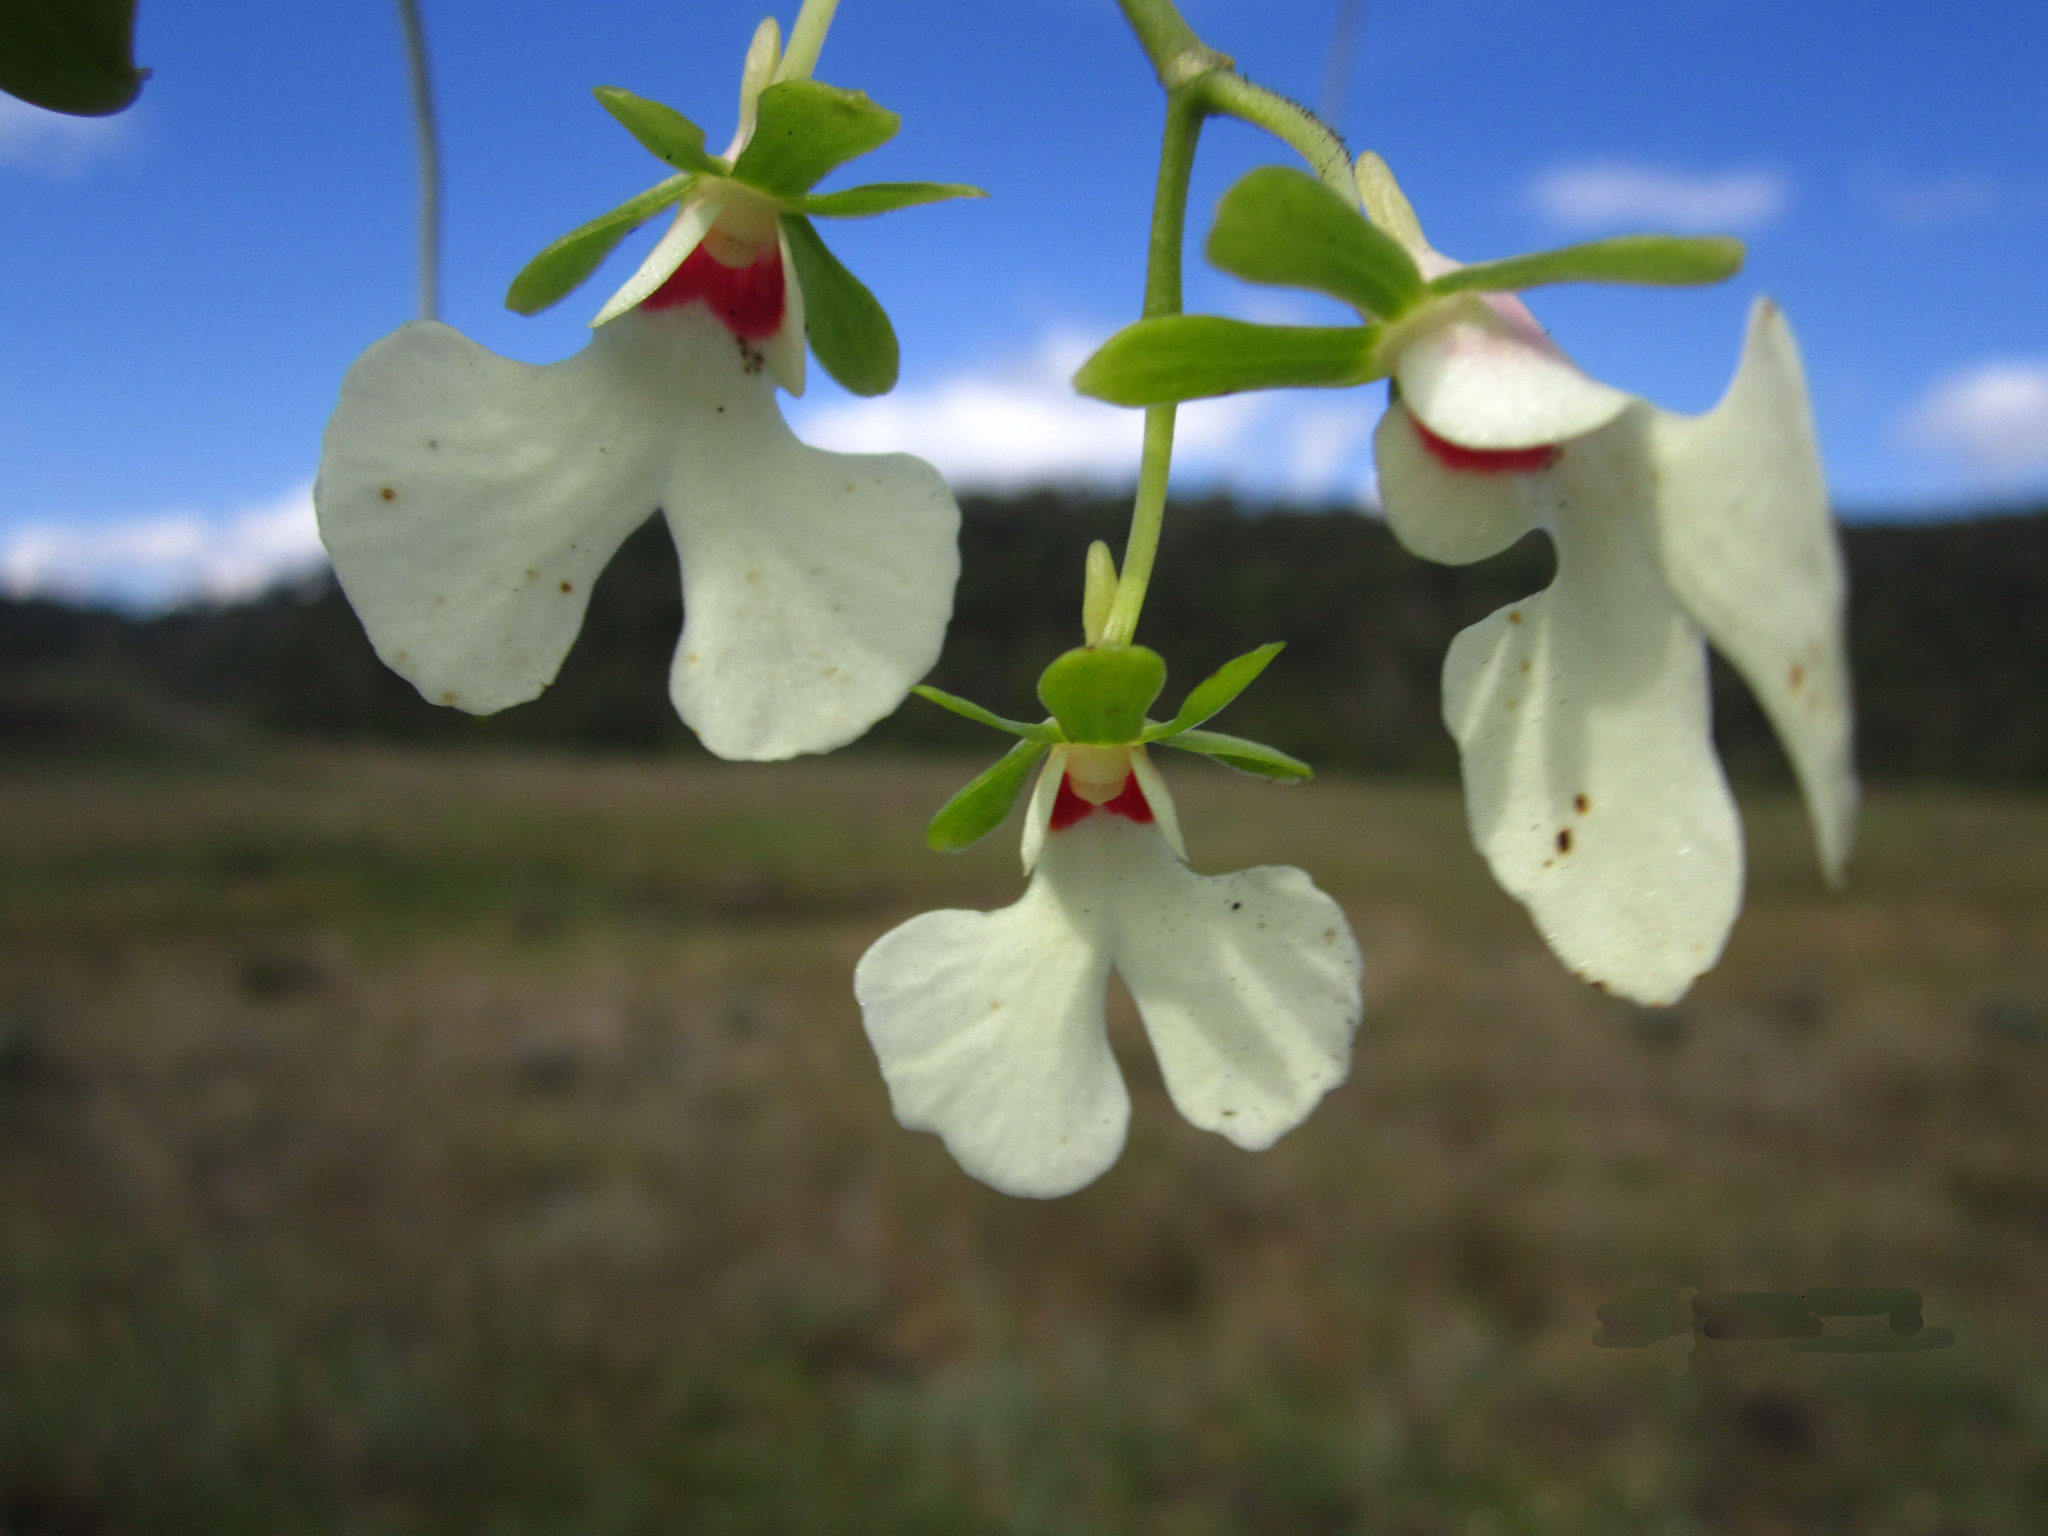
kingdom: Plantae
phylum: Tracheophyta
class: Liliopsida
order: Asparagales
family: Orchidaceae
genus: Oeonia
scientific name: Oeonia rosea
